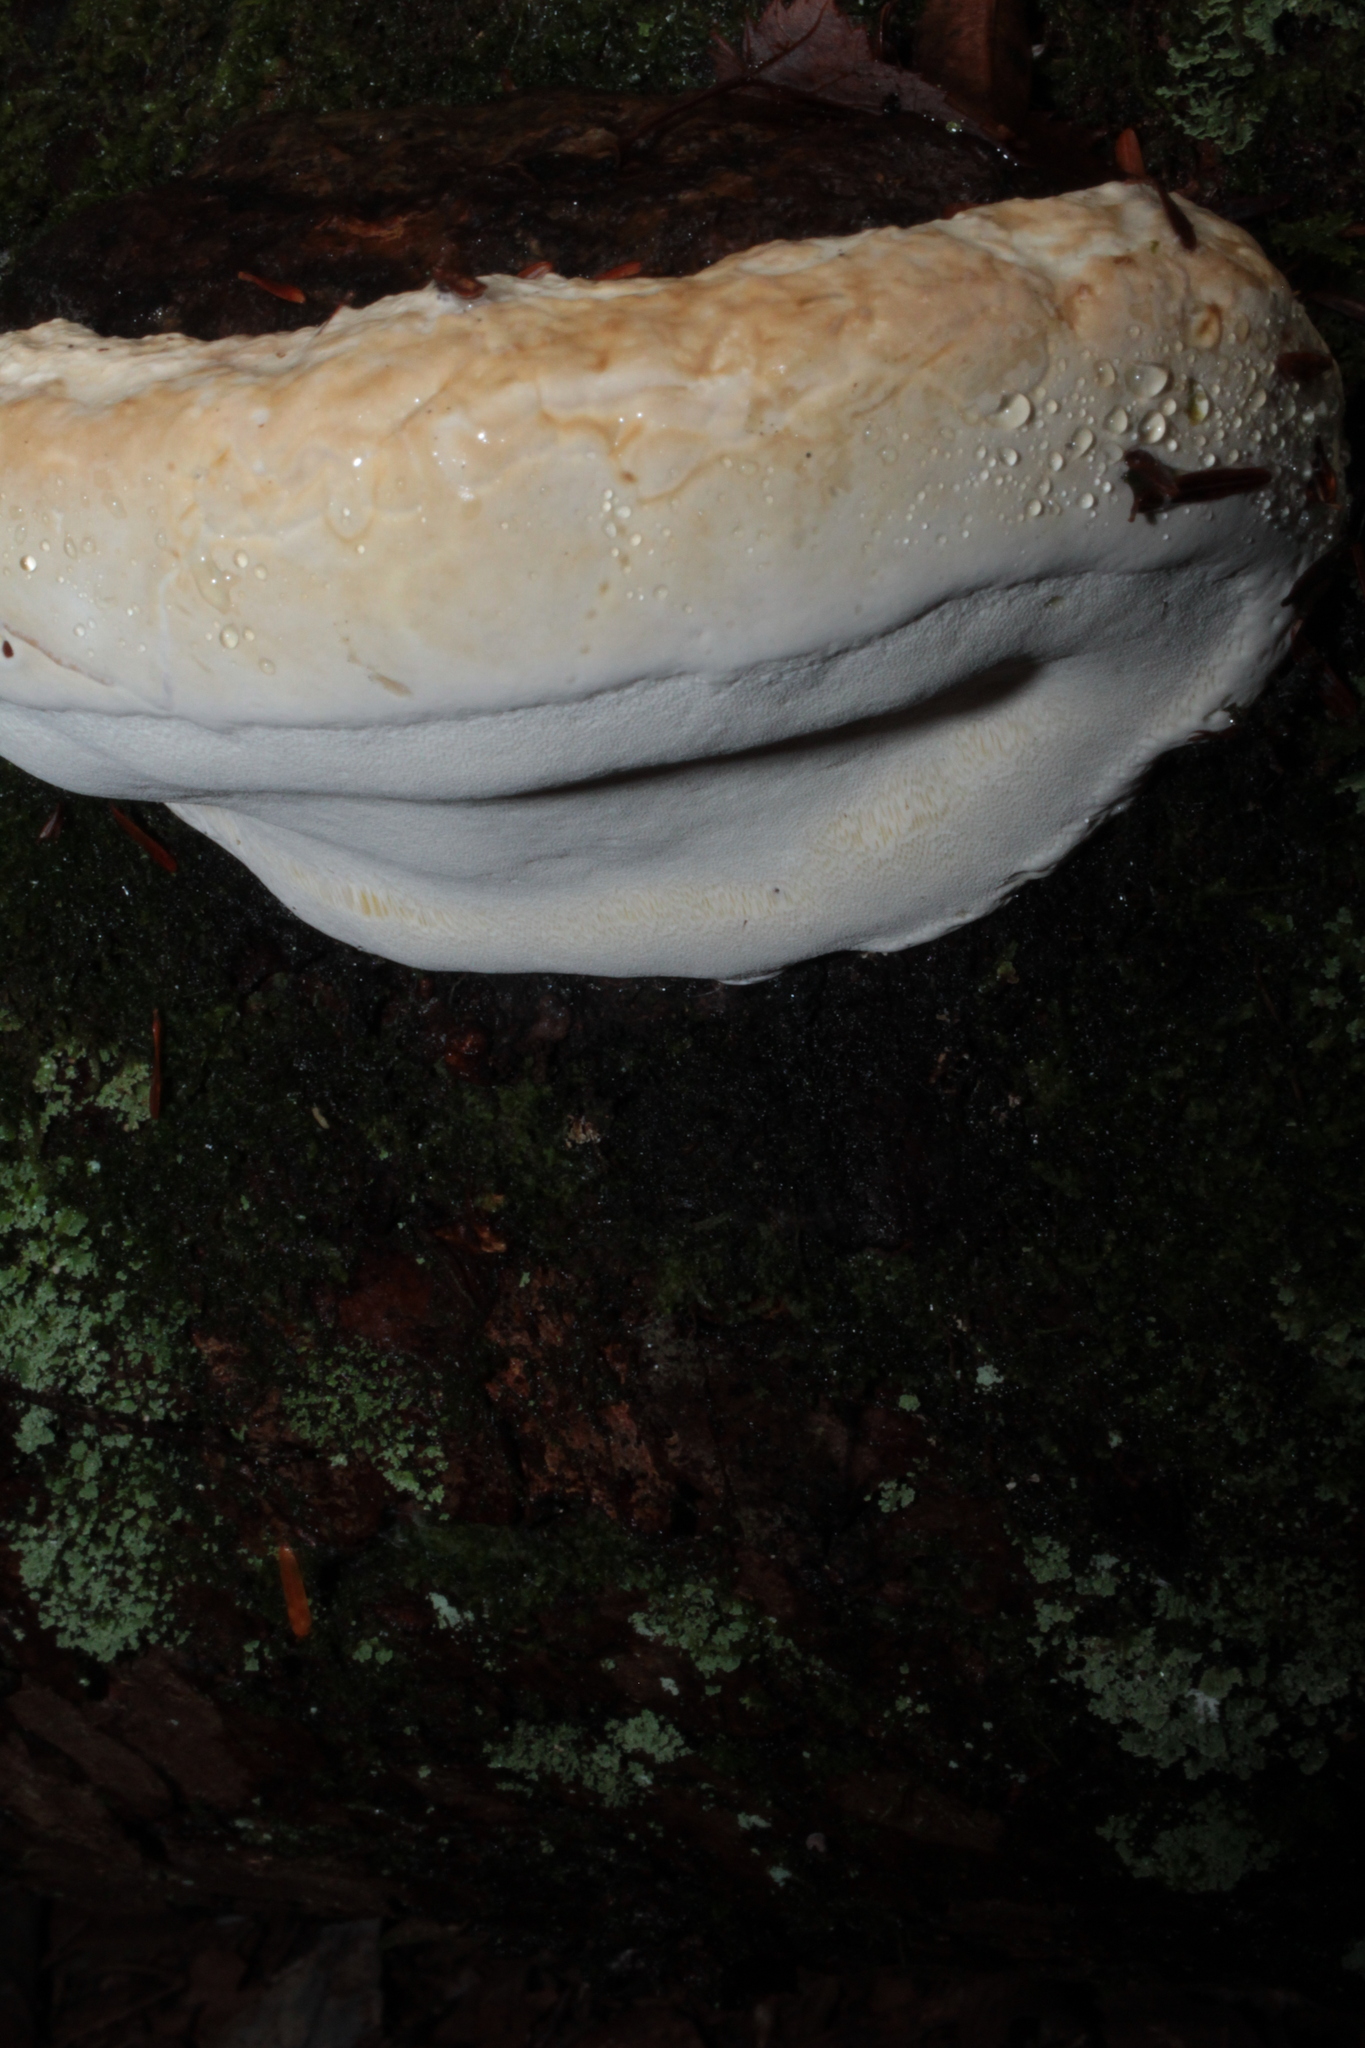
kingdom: Fungi
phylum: Basidiomycota
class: Agaricomycetes
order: Polyporales
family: Fomitopsidaceae
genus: Fomitopsis
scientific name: Fomitopsis ochracea
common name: American brown fomitopsis
